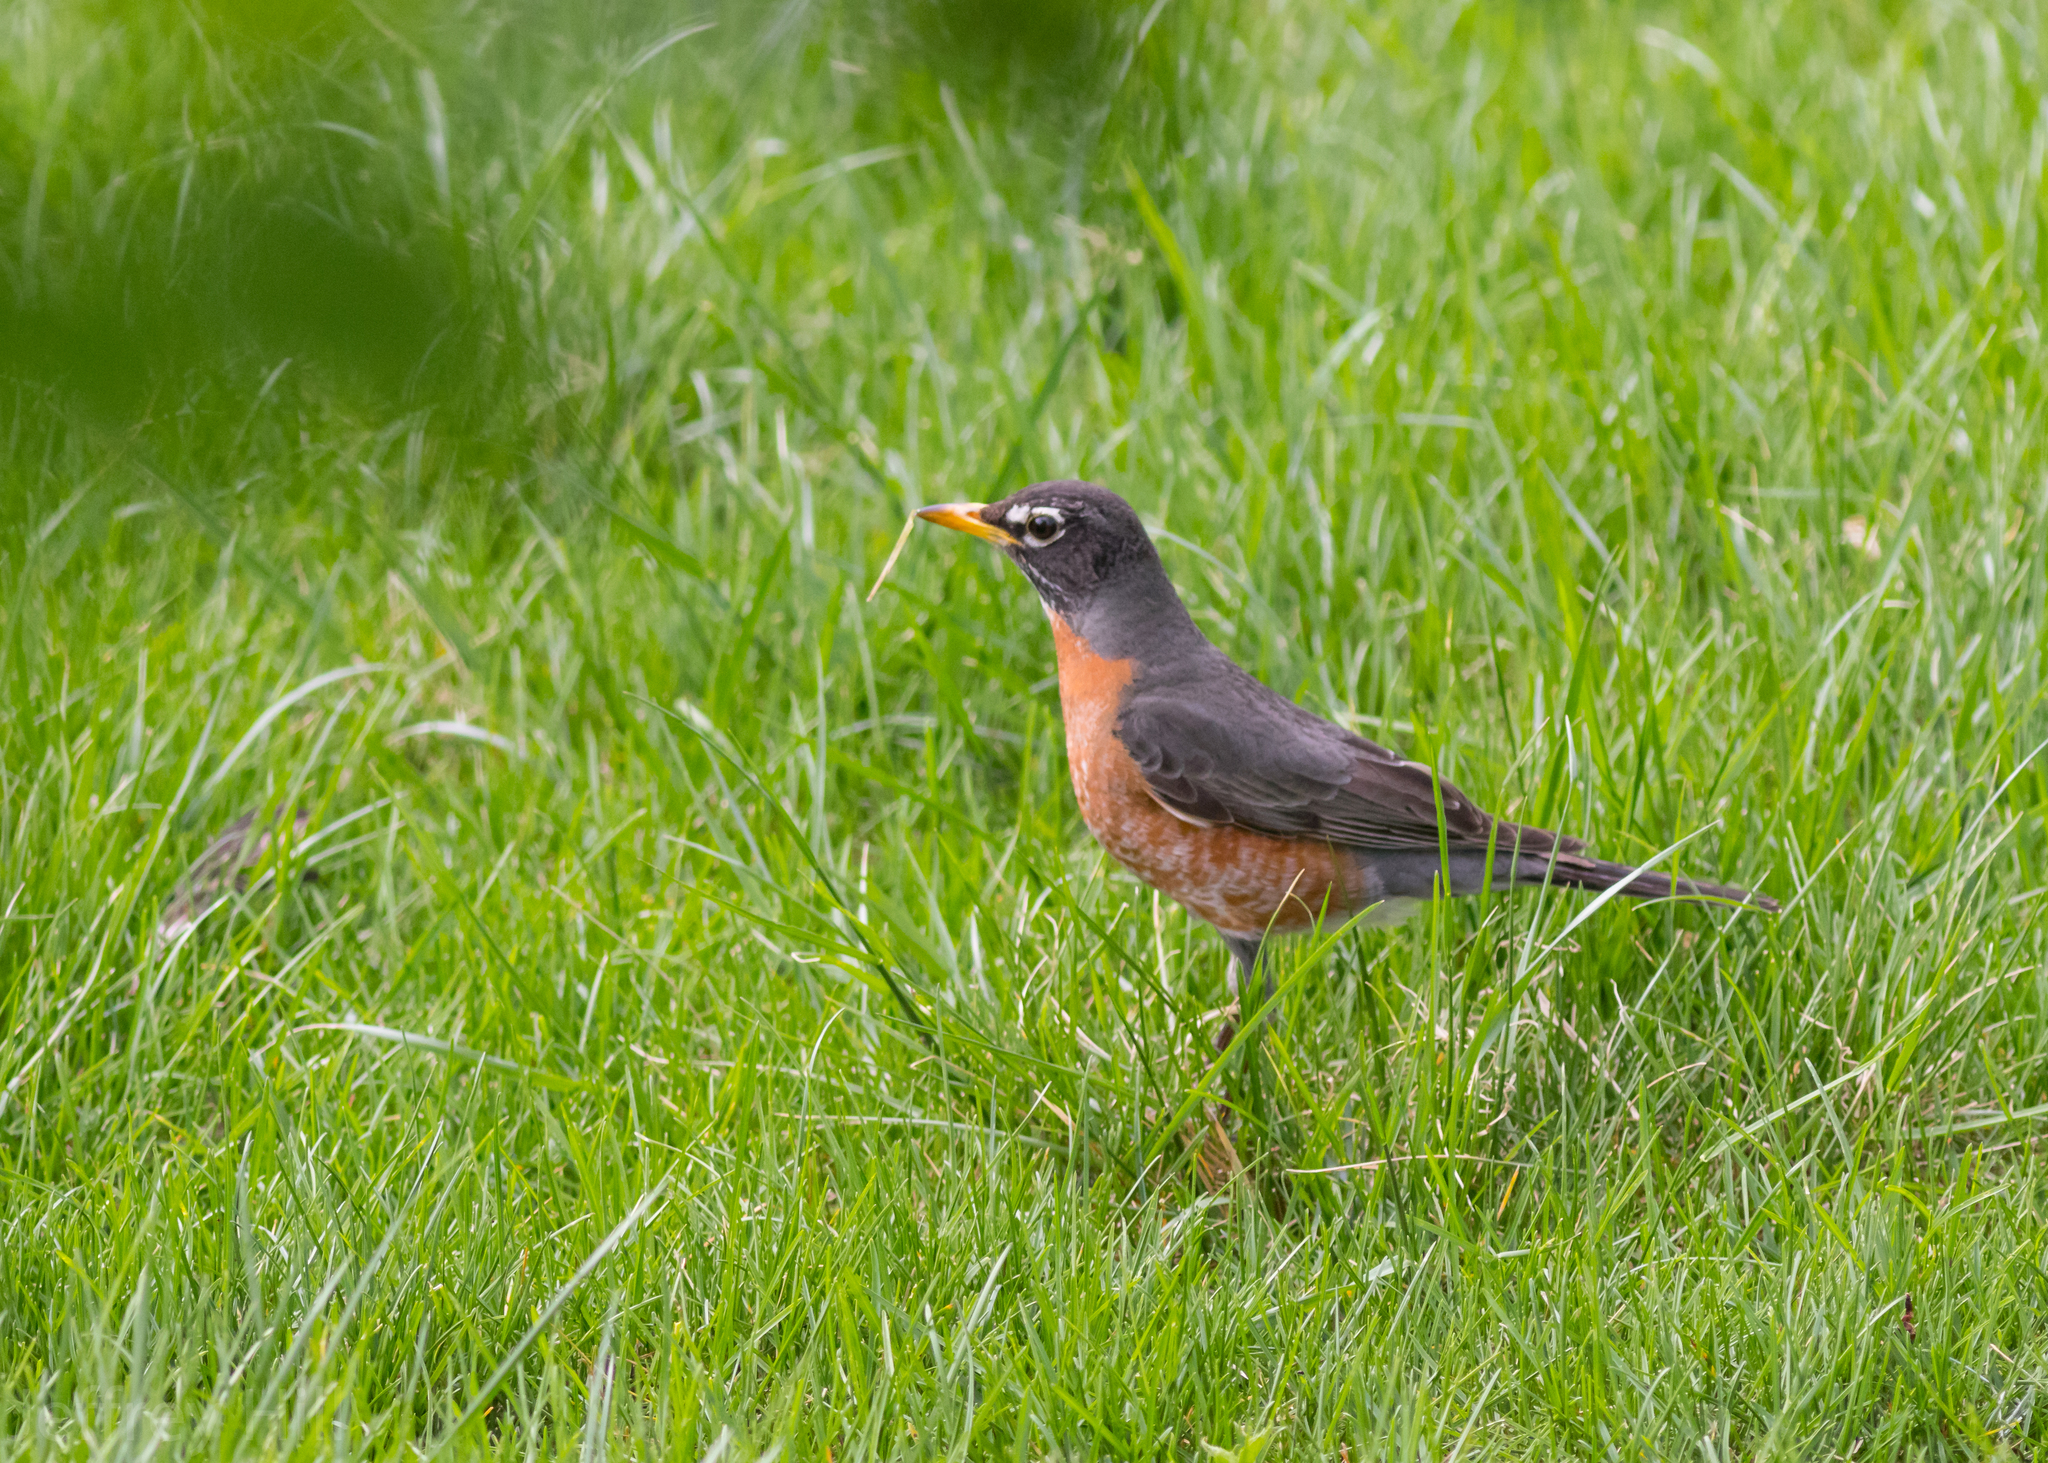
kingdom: Animalia
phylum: Chordata
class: Aves
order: Passeriformes
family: Turdidae
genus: Turdus
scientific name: Turdus migratorius
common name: American robin
